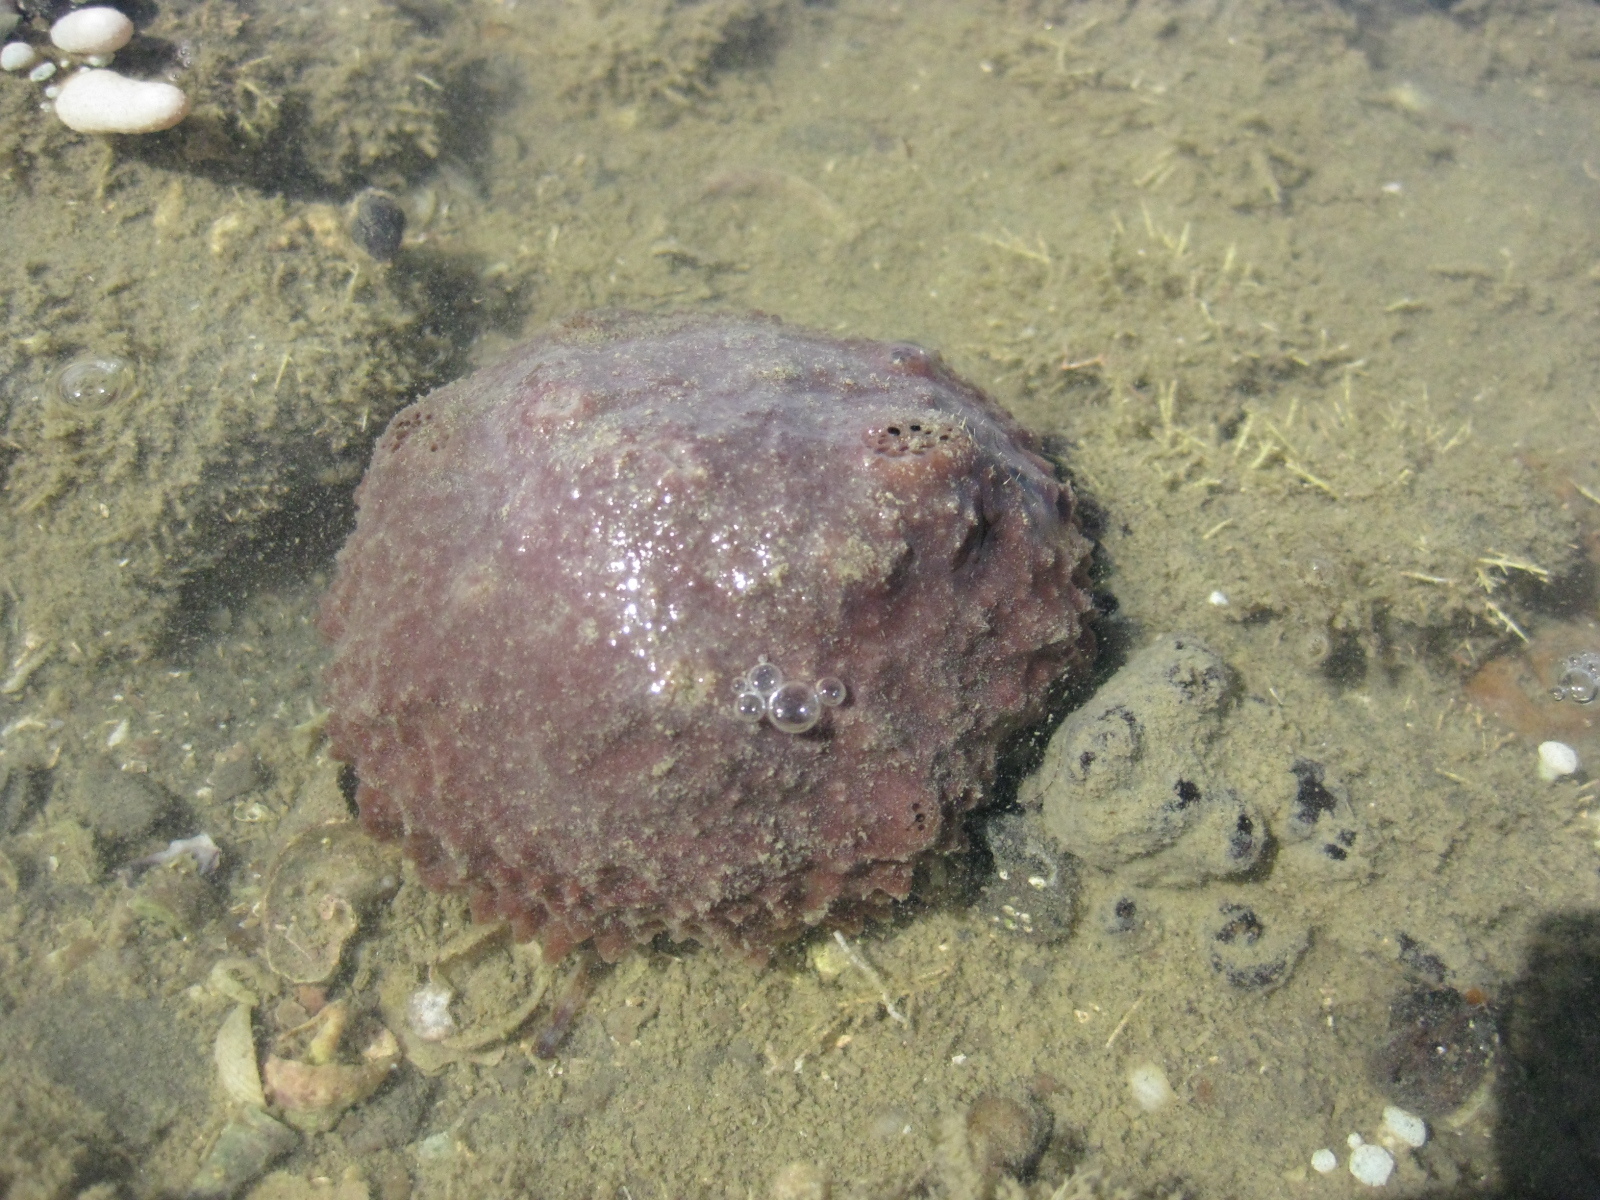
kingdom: Animalia
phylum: Porifera
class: Demospongiae
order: Suberitida
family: Suberitidae
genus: Aaptos
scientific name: Aaptos tenta
